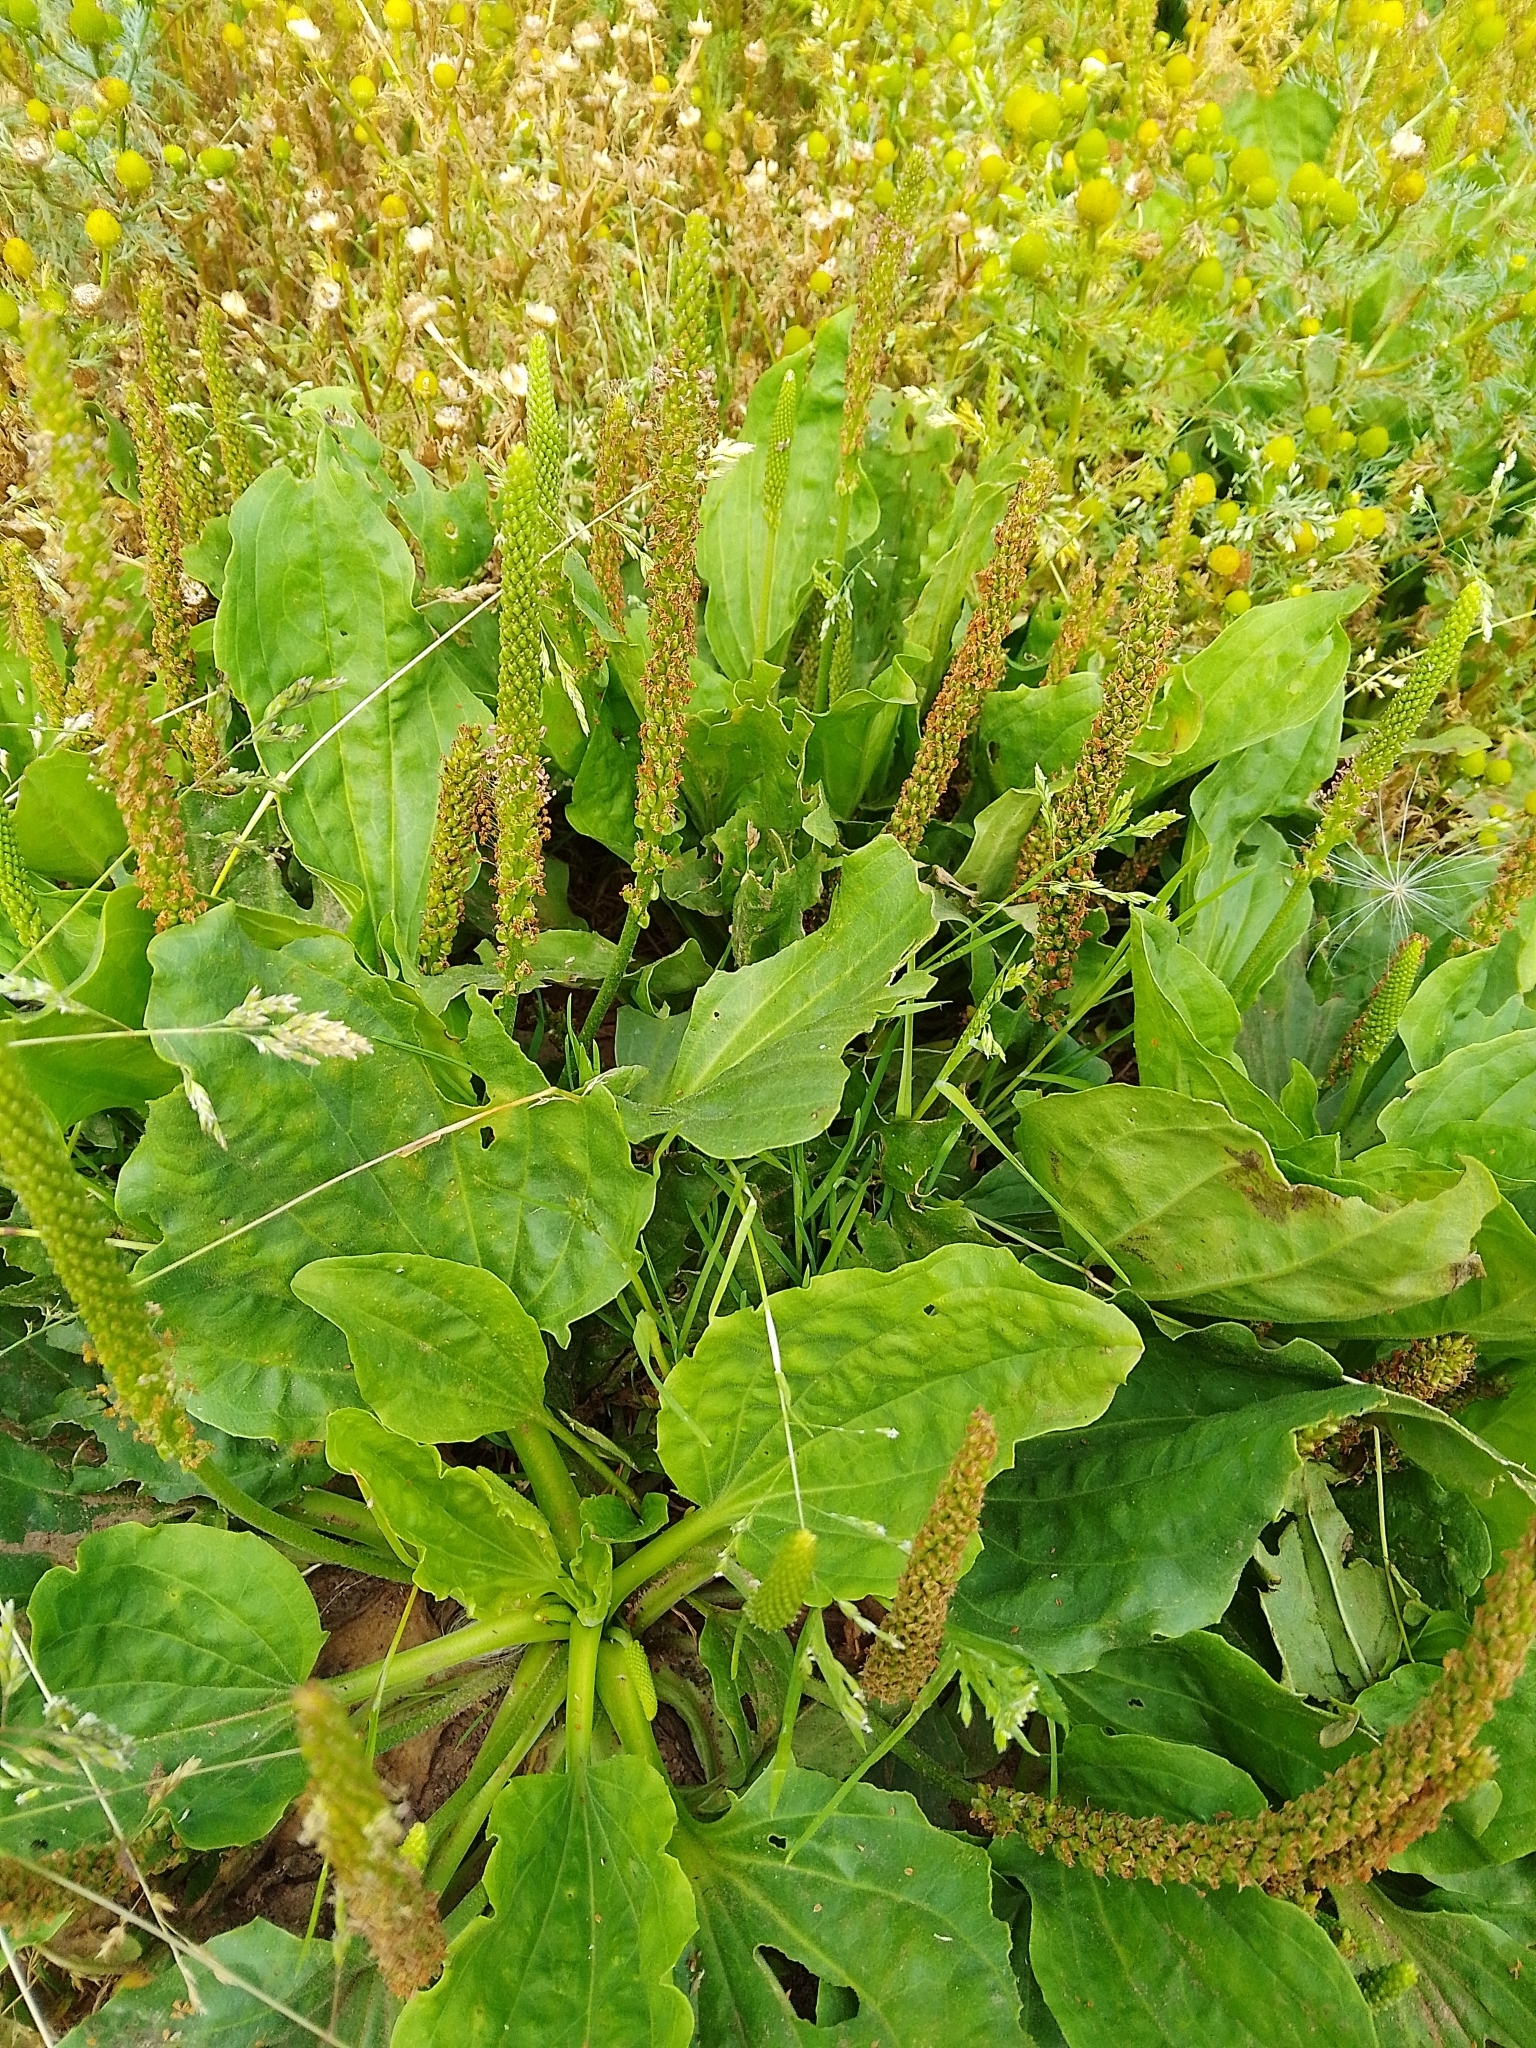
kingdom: Plantae
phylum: Tracheophyta
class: Magnoliopsida
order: Lamiales
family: Plantaginaceae
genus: Plantago
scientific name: Plantago major
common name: Common plantain
